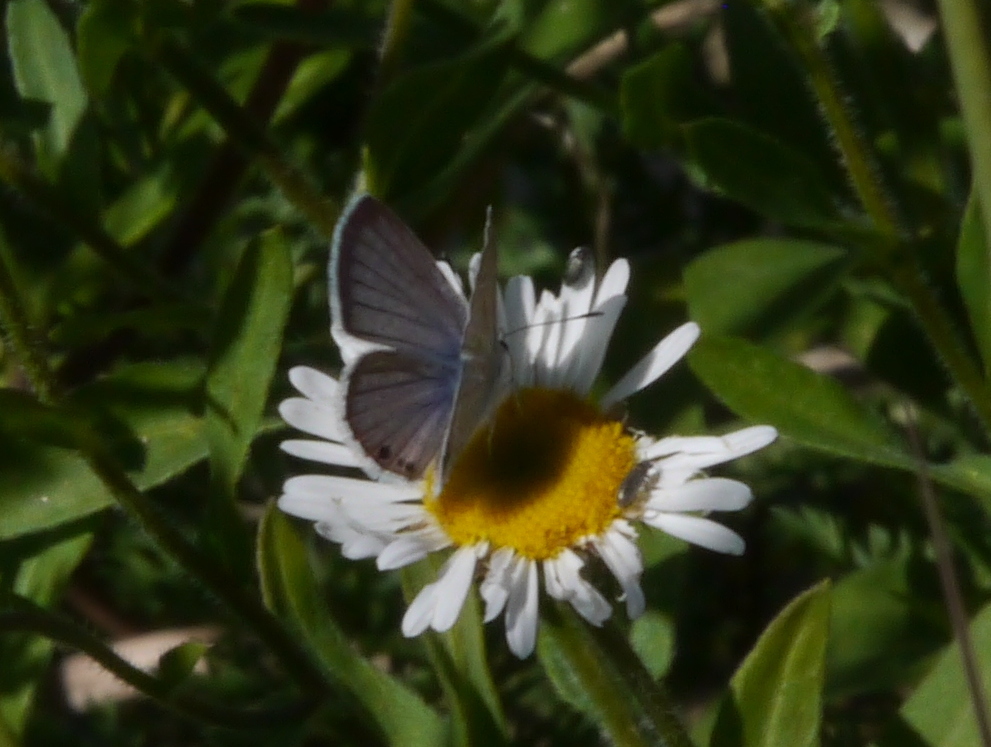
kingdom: Animalia
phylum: Arthropoda
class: Insecta
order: Lepidoptera
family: Lycaenidae
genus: Echinargus
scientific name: Echinargus isola
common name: Reakirt's blue
